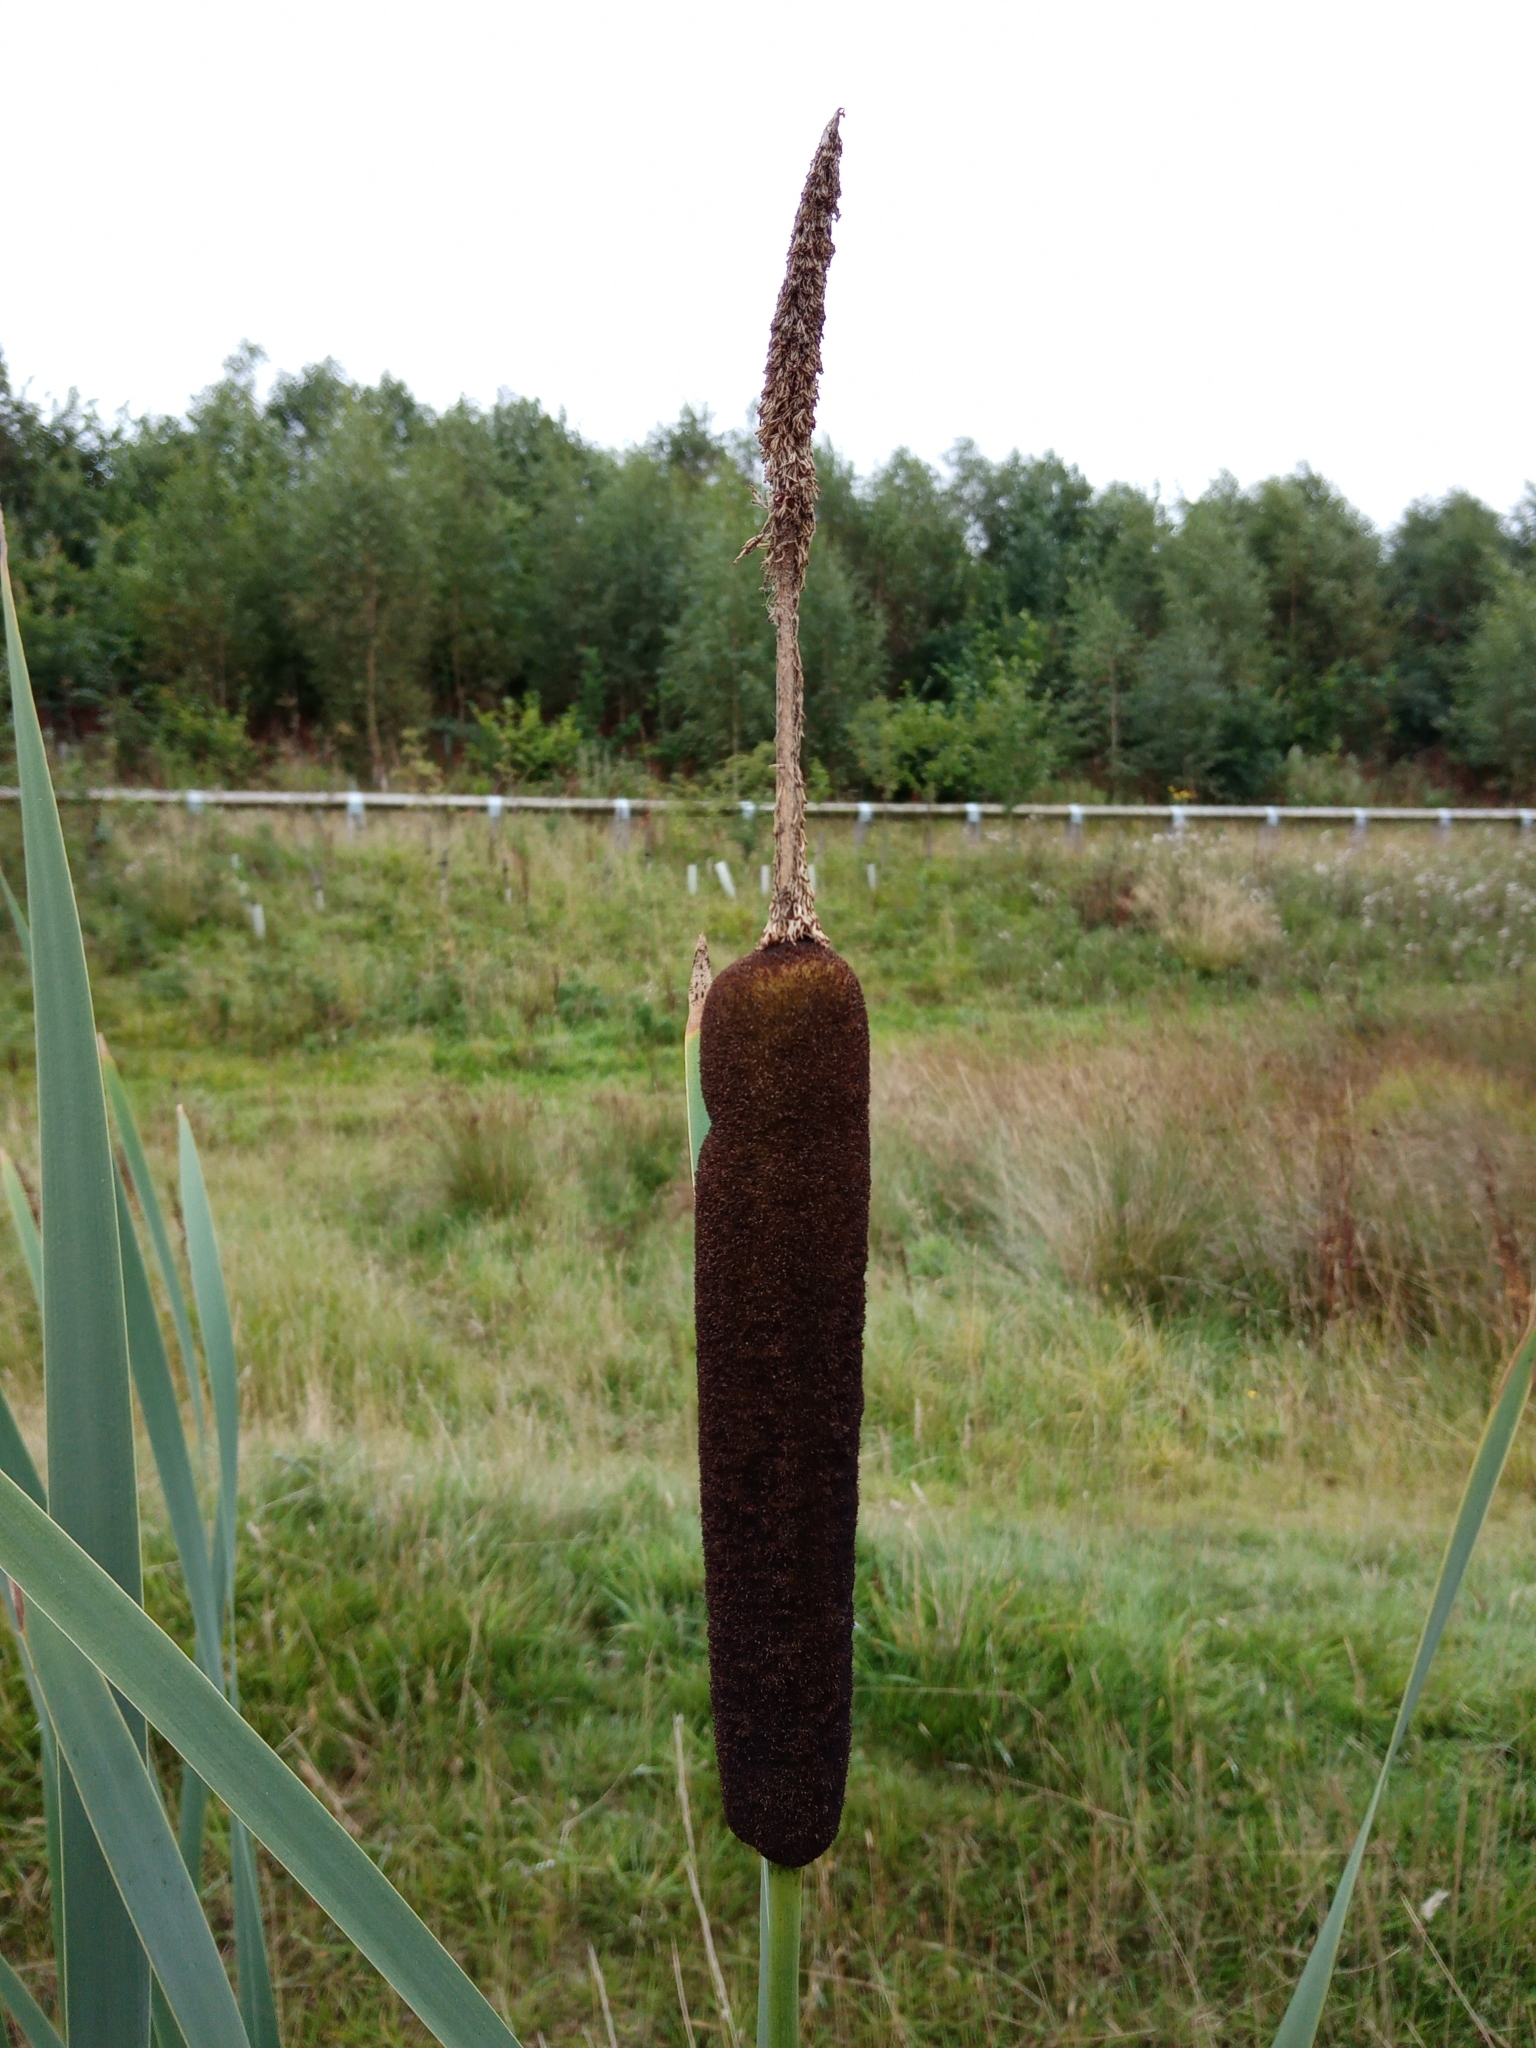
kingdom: Plantae
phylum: Tracheophyta
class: Liliopsida
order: Poales
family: Typhaceae
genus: Typha
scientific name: Typha latifolia
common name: Broadleaf cattail
